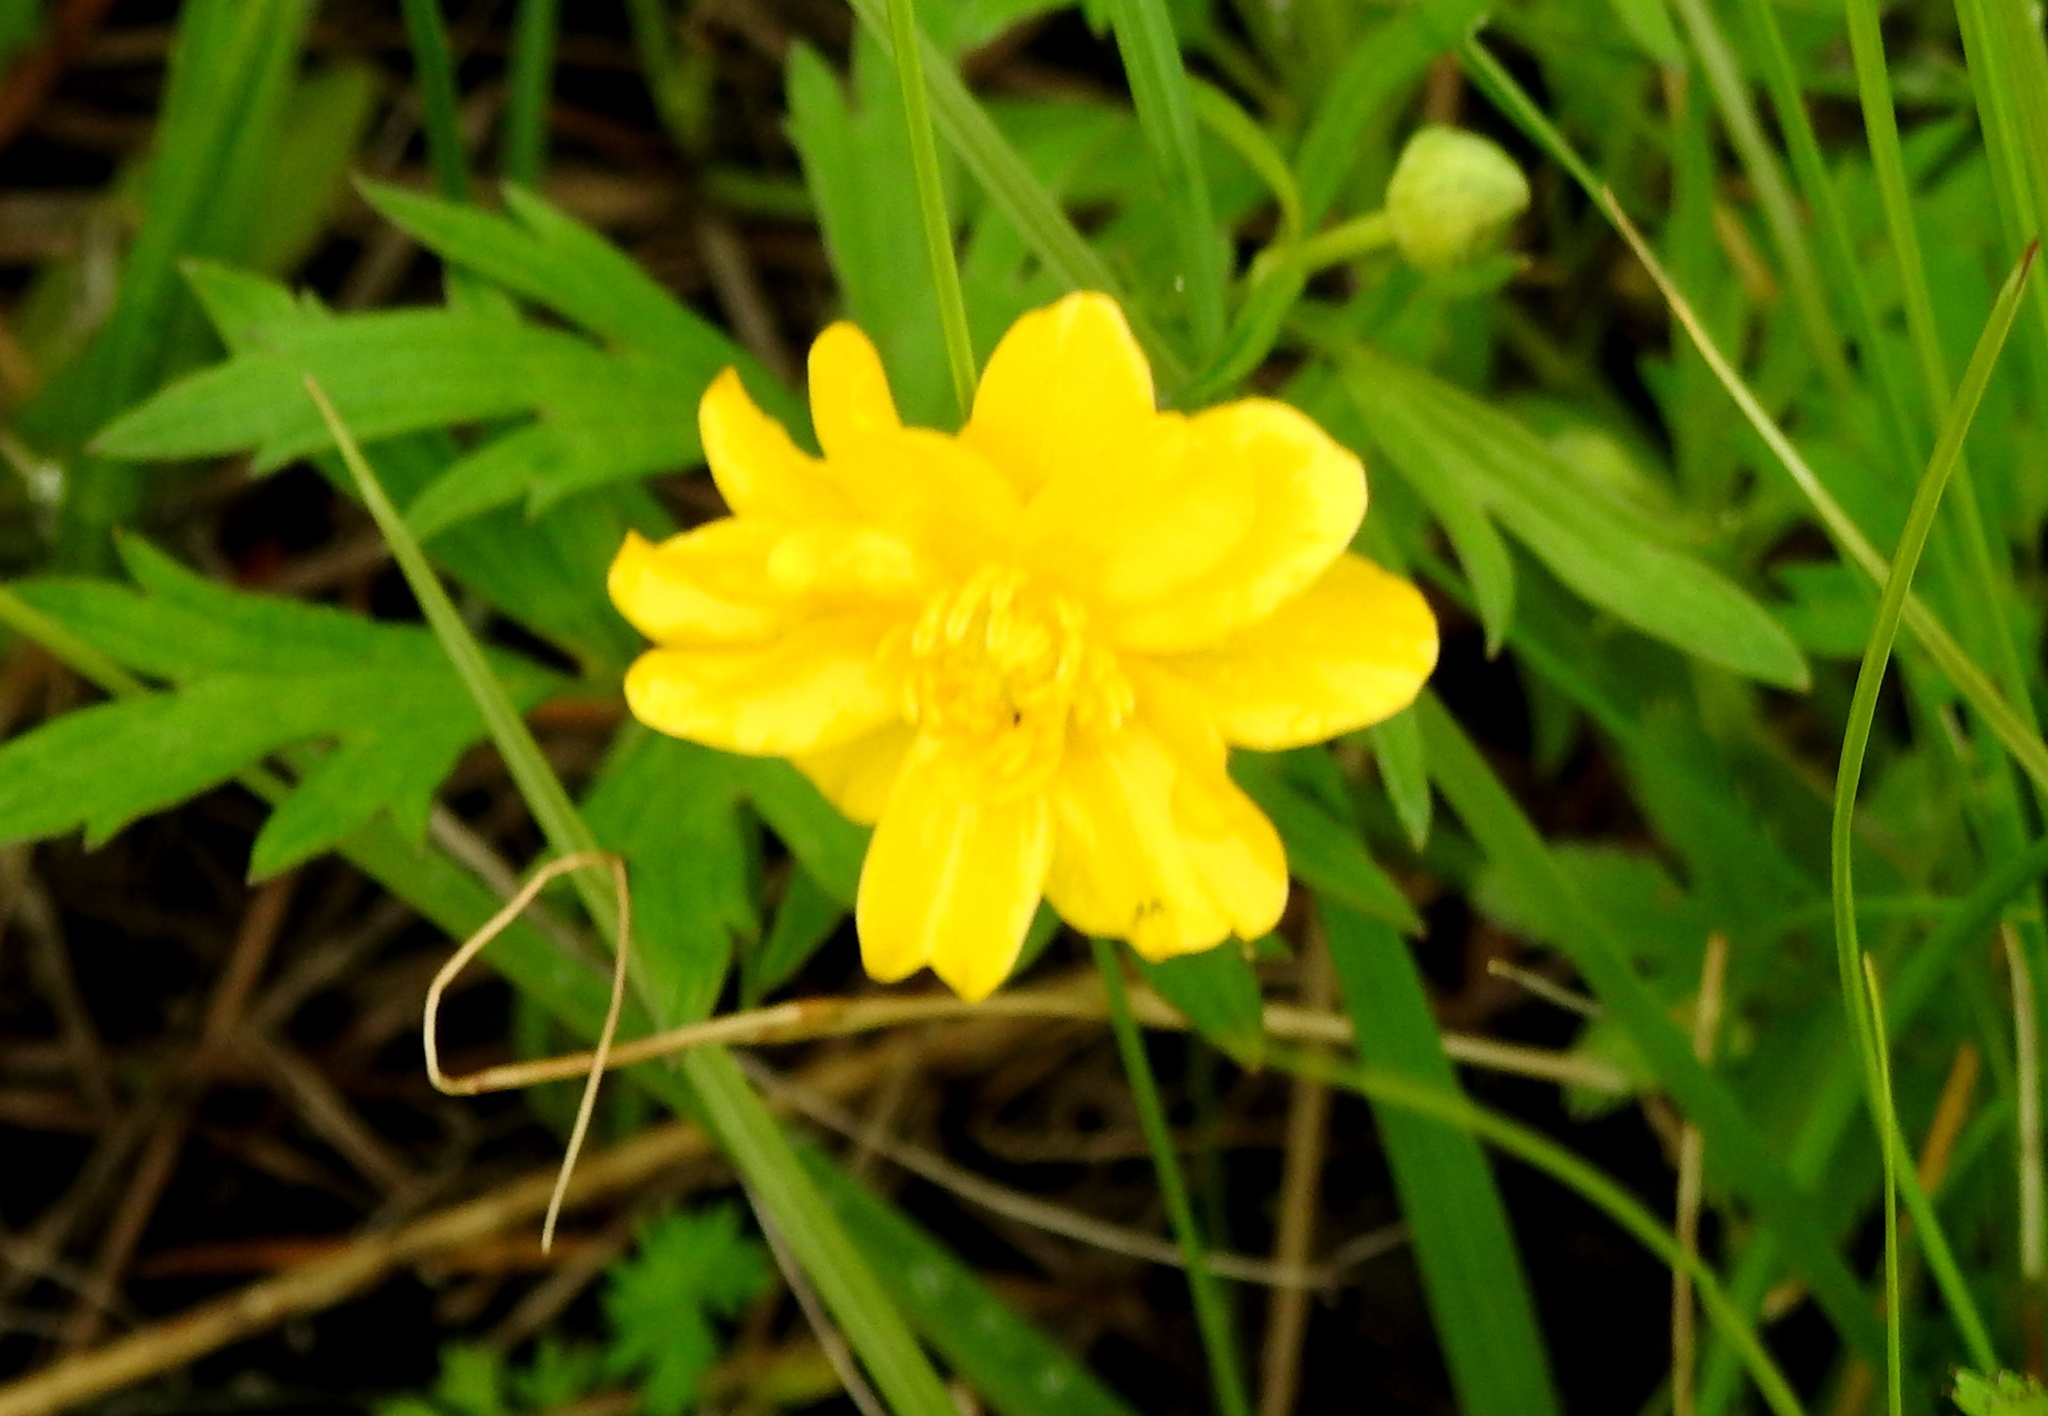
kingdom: Plantae
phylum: Tracheophyta
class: Magnoliopsida
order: Ranunculales
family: Ranunculaceae
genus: Ranunculus
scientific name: Ranunculus repens
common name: Creeping buttercup
